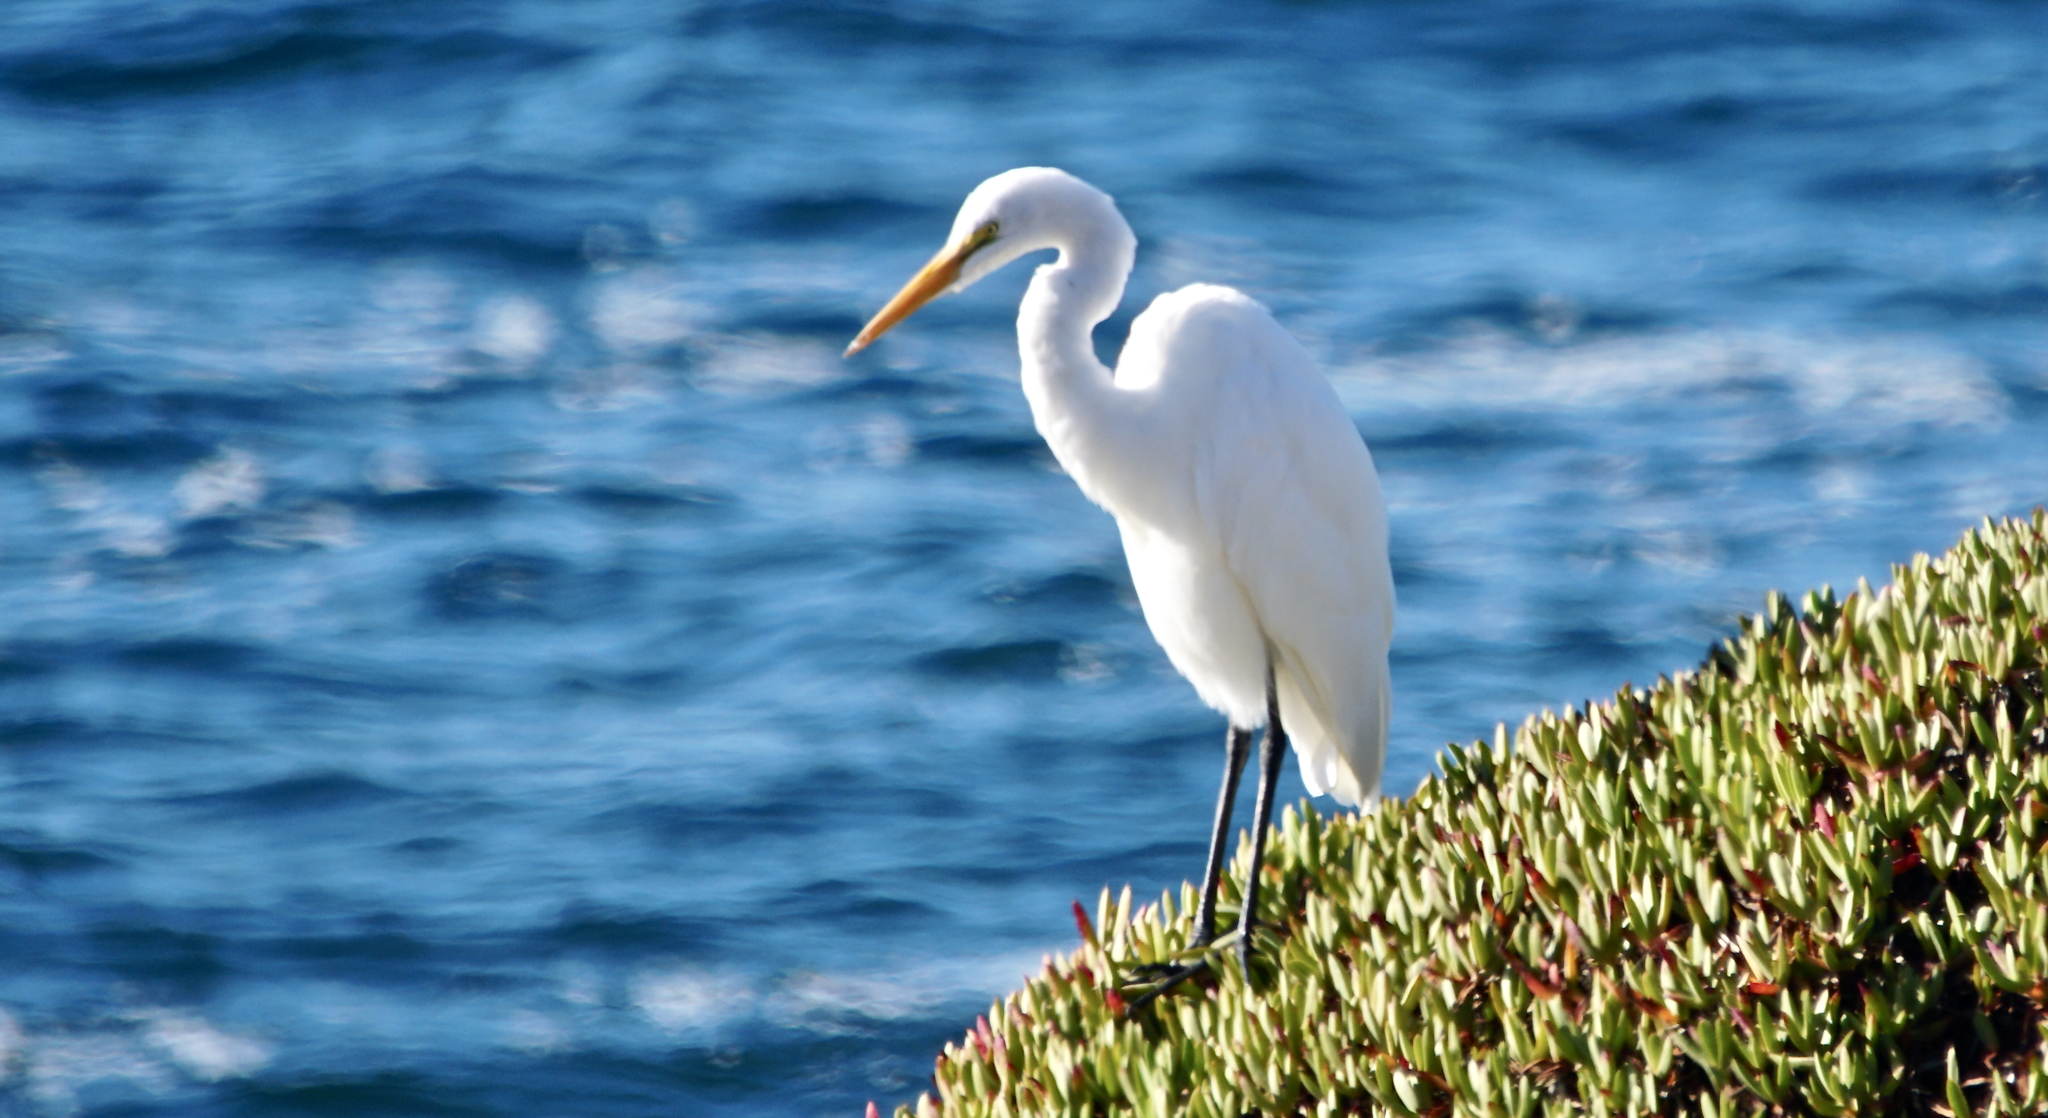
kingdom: Animalia
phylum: Chordata
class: Aves
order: Pelecaniformes
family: Ardeidae
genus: Ardea
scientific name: Ardea alba
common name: Great egret
